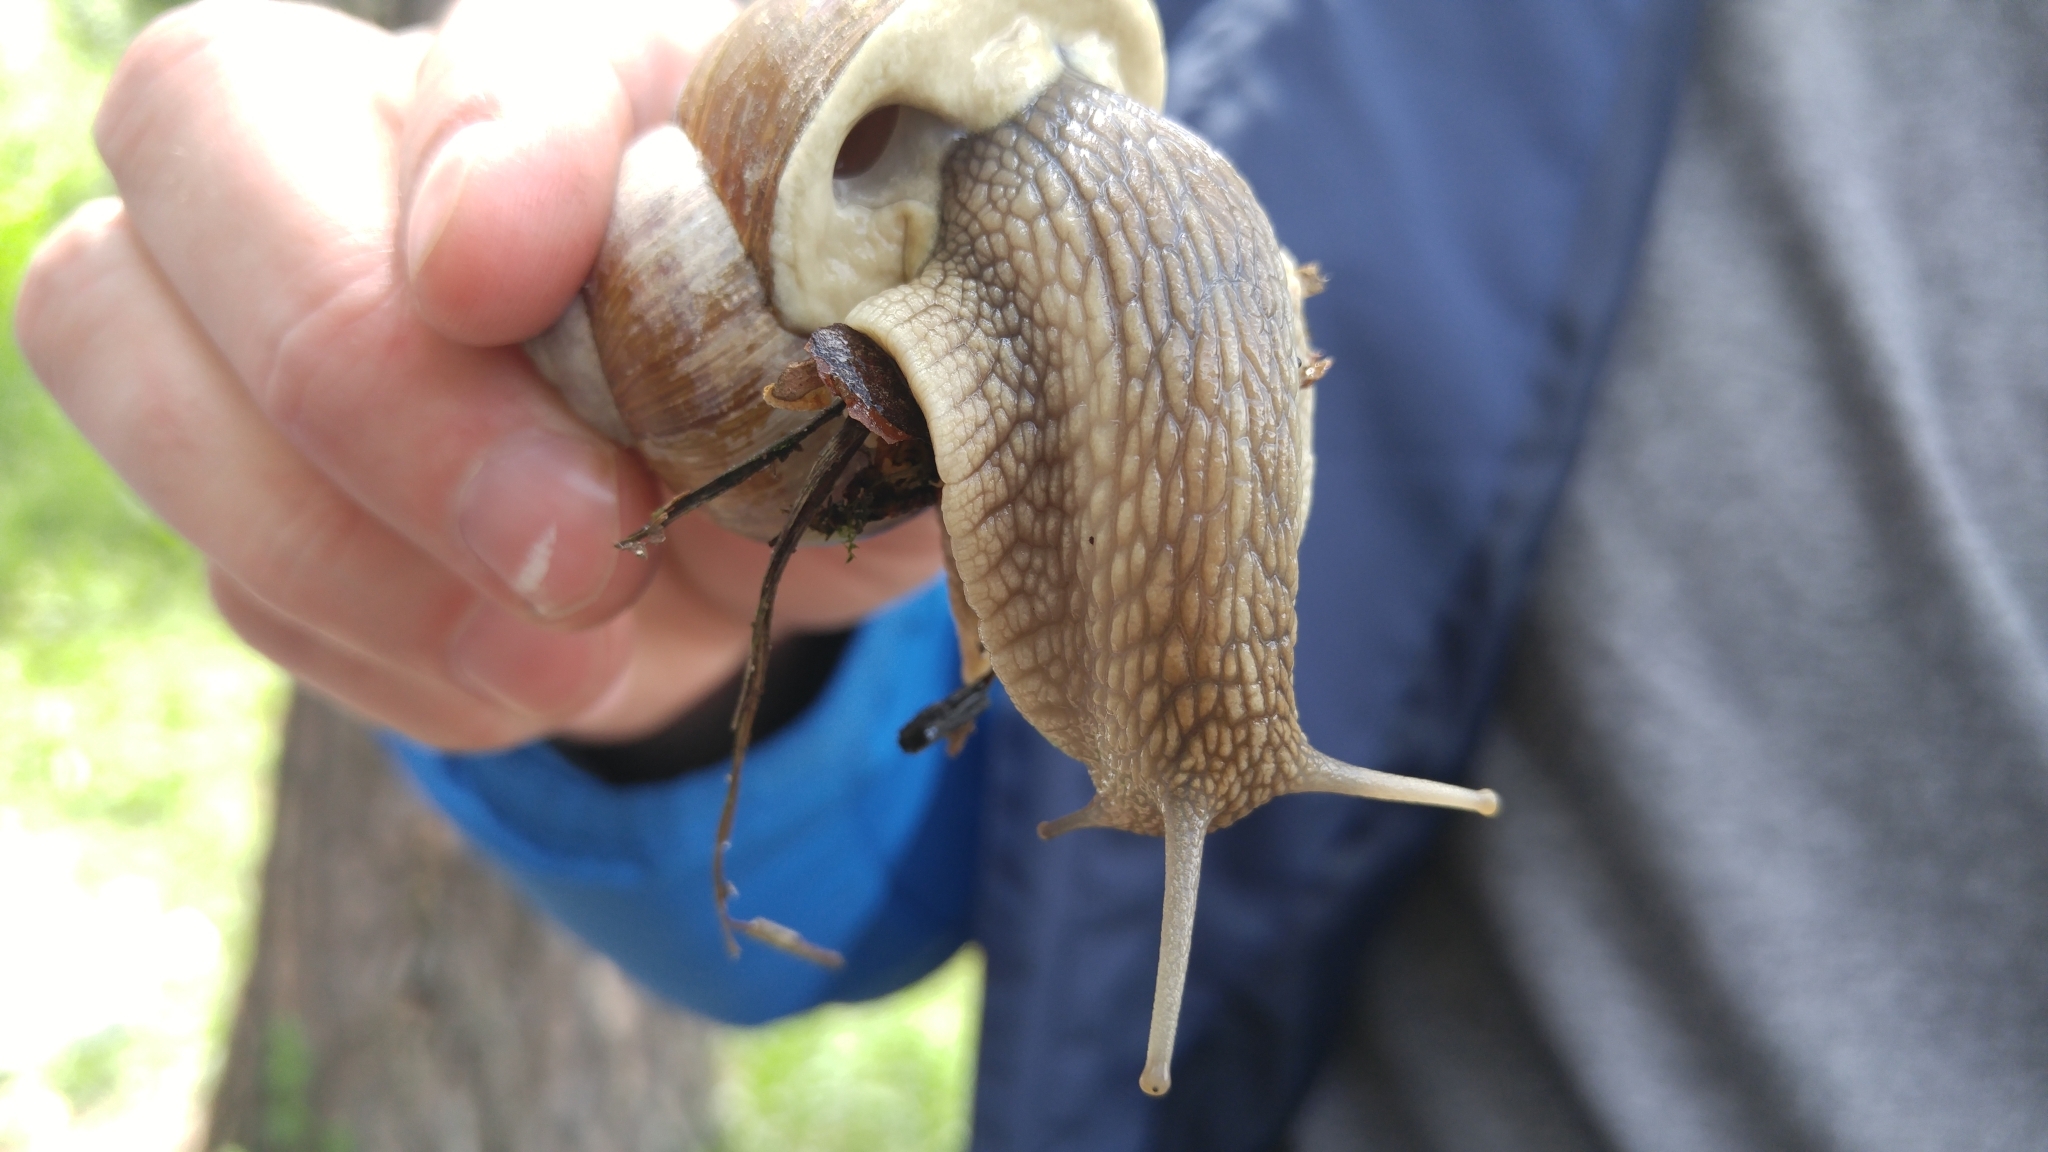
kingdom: Animalia
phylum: Mollusca
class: Gastropoda
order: Stylommatophora
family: Helicidae
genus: Helix
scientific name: Helix pomatia
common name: Roman snail
